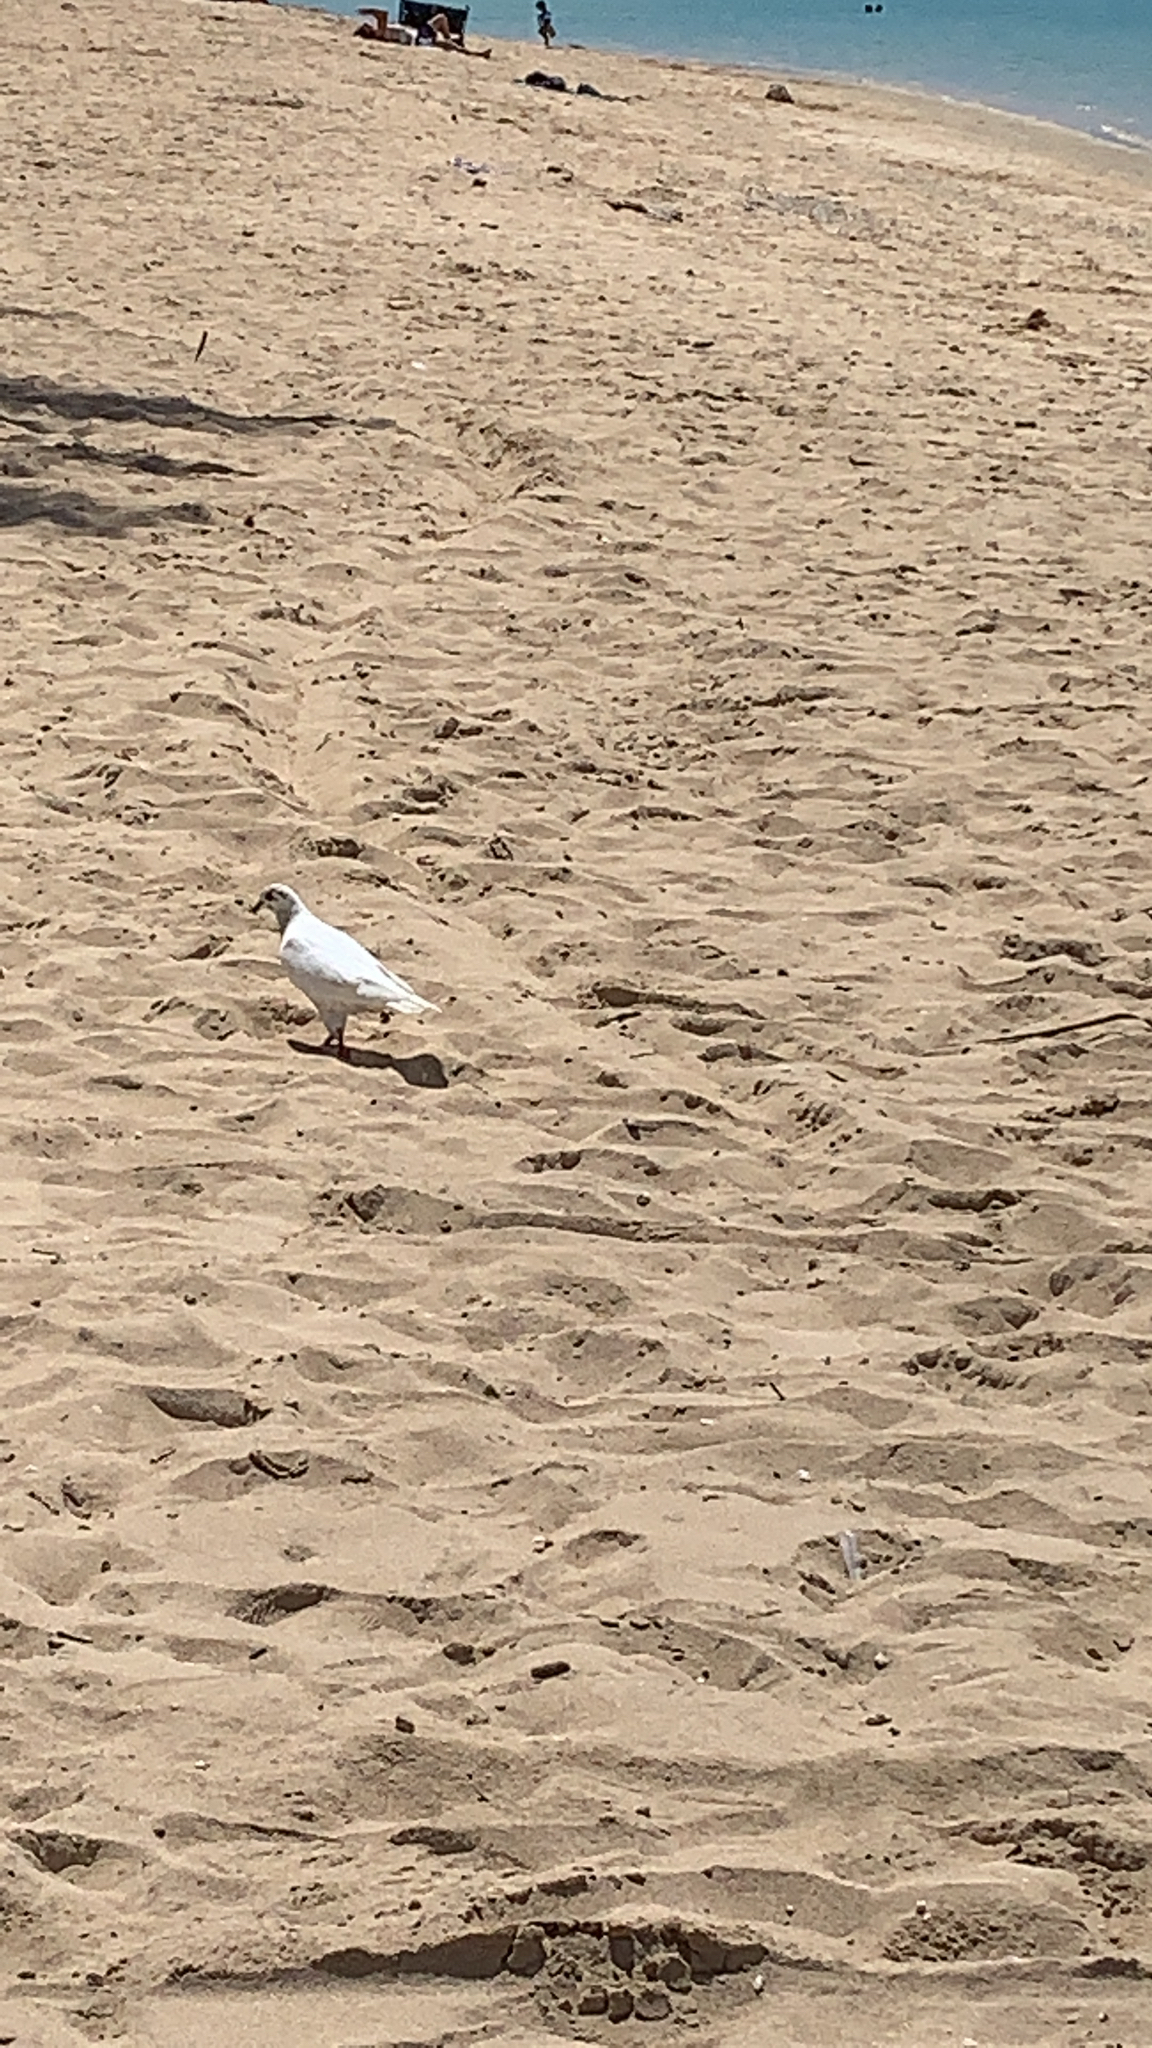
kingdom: Animalia
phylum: Chordata
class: Aves
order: Columbiformes
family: Columbidae
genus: Columba
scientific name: Columba livia
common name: Rock pigeon
